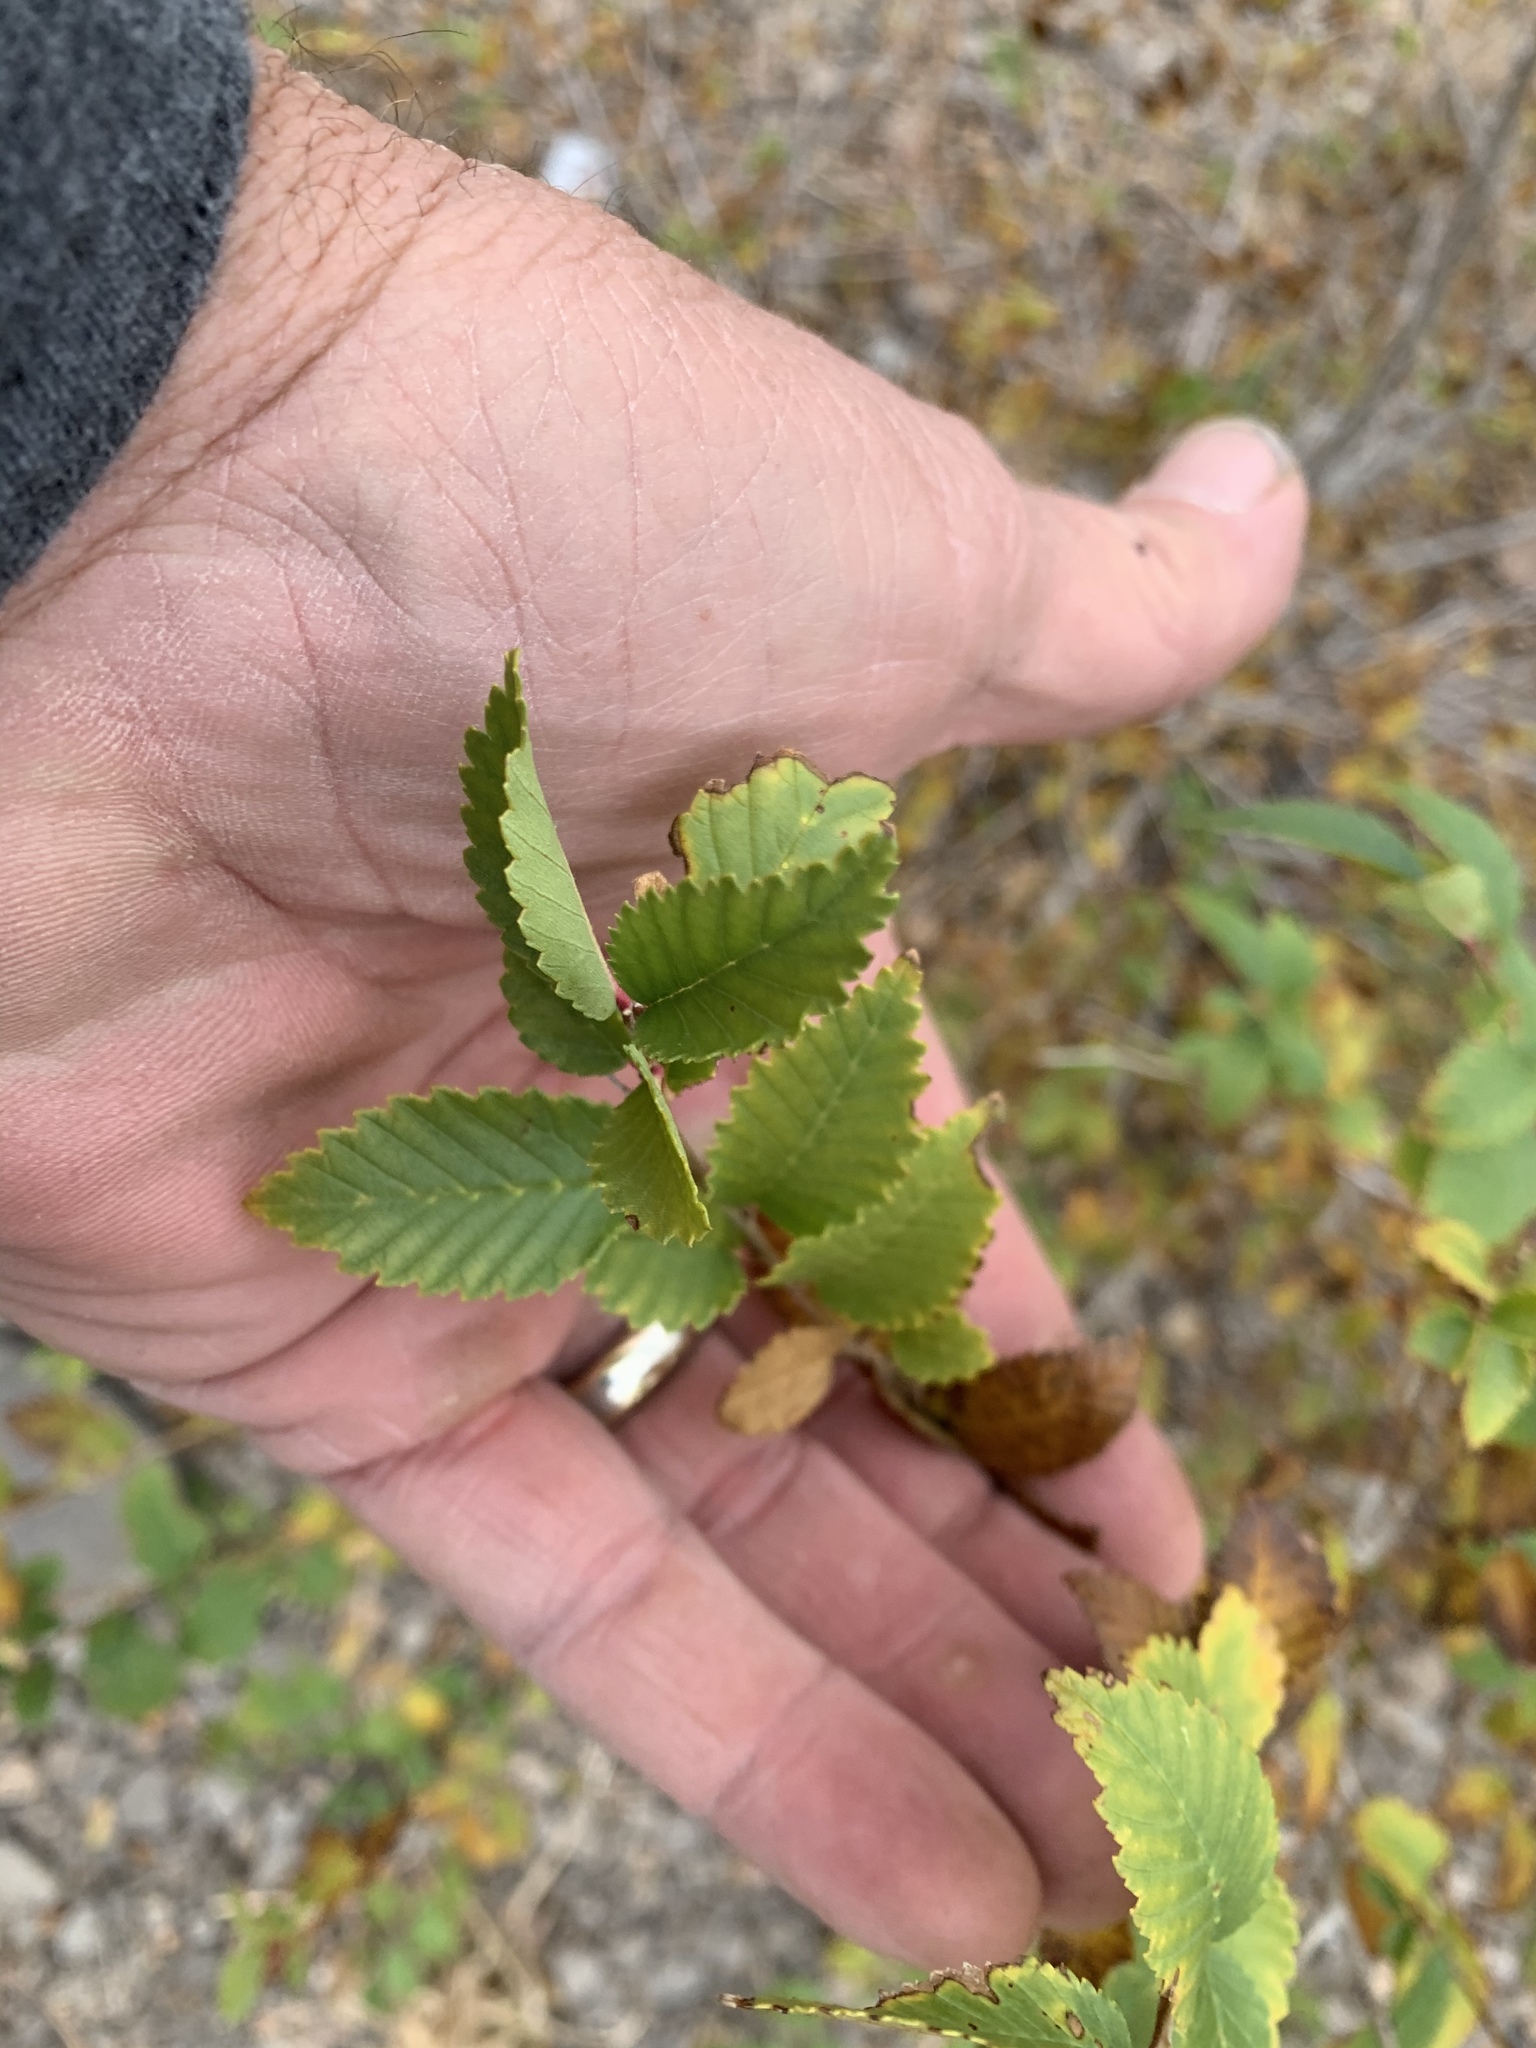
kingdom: Plantae
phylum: Tracheophyta
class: Magnoliopsida
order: Rosales
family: Ulmaceae
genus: Ulmus
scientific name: Ulmus pumila
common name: Siberian elm
